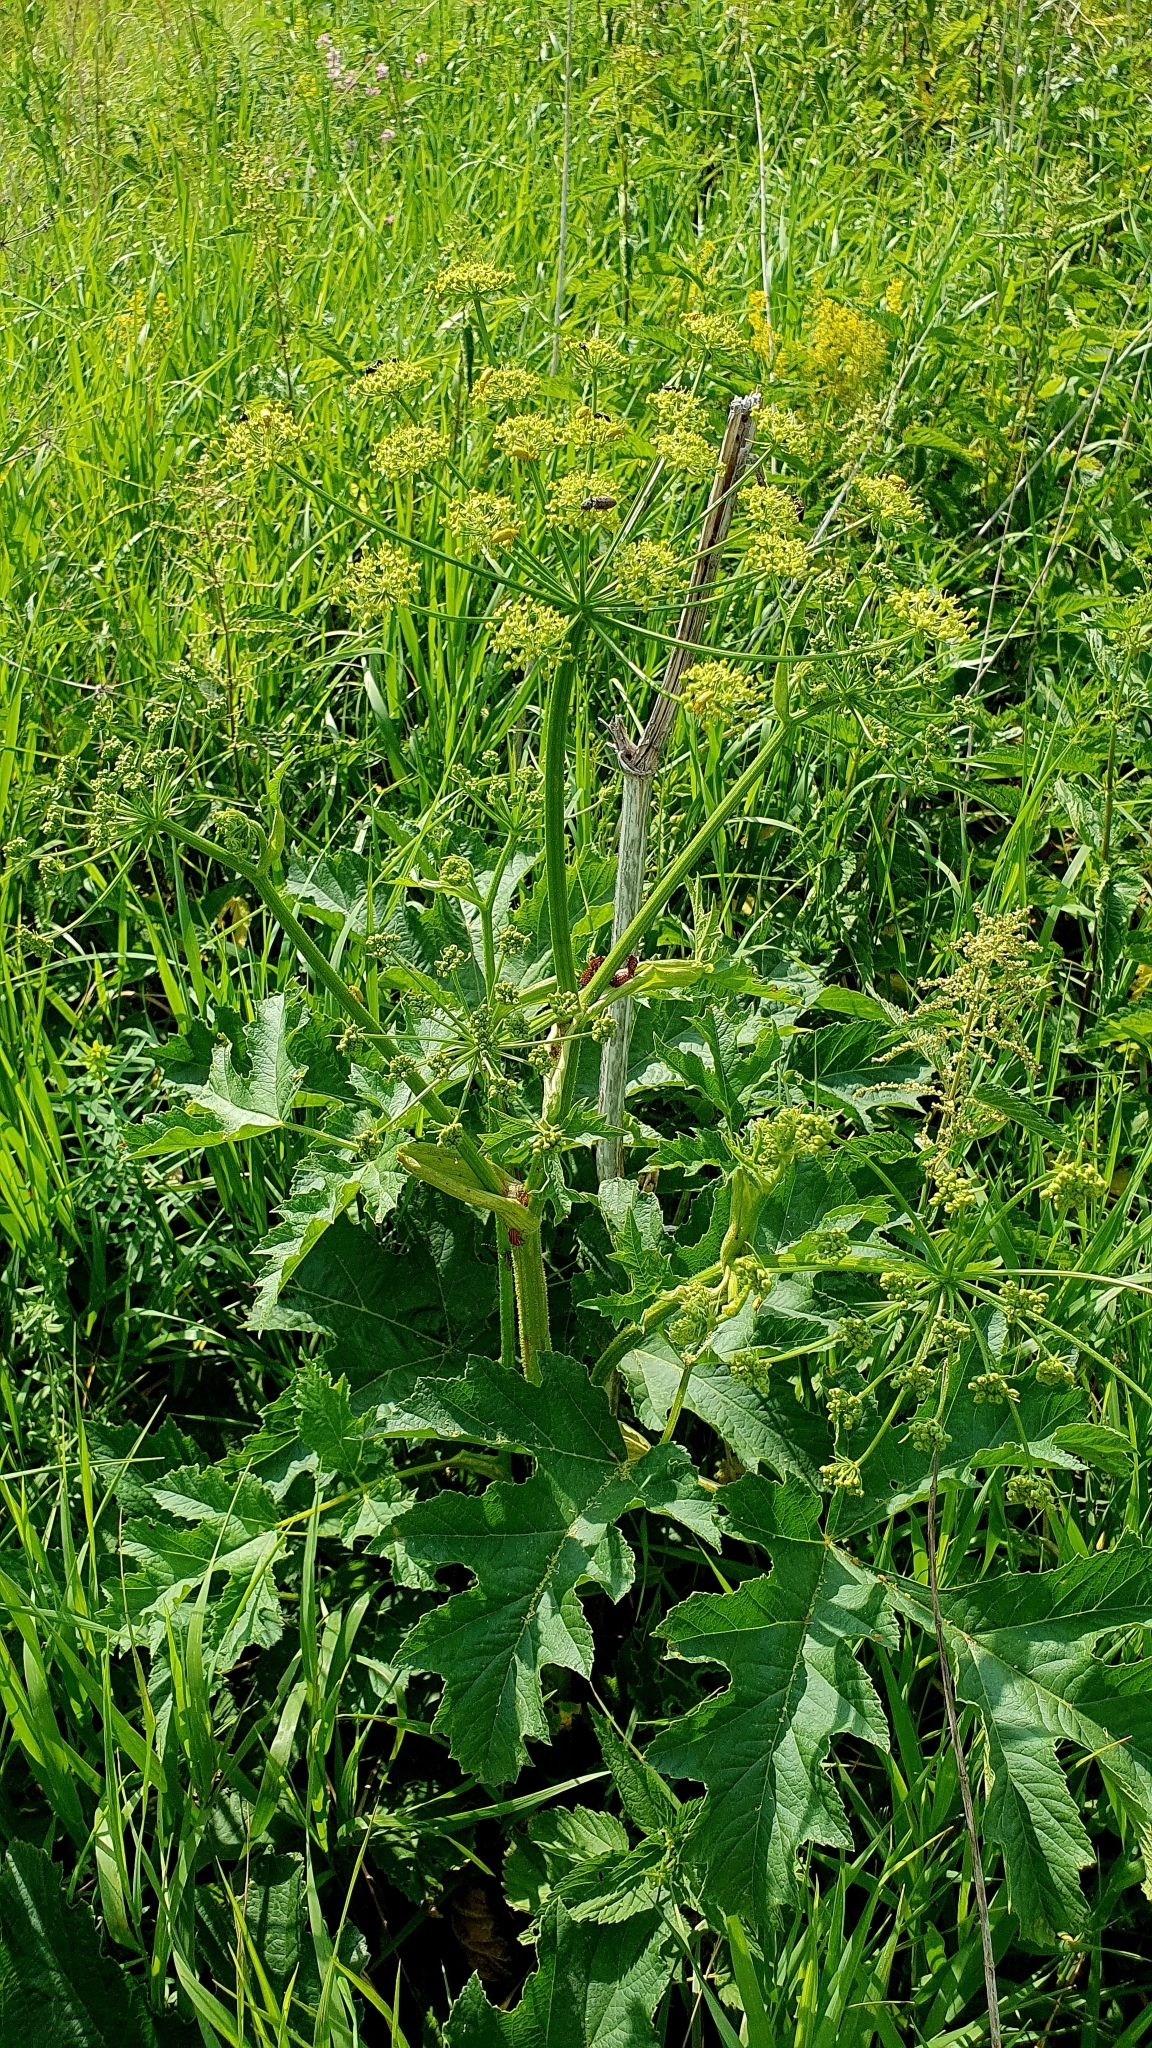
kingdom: Plantae
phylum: Tracheophyta
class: Magnoliopsida
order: Apiales
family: Apiaceae
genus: Heracleum
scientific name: Heracleum sphondylium
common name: Hogweed
